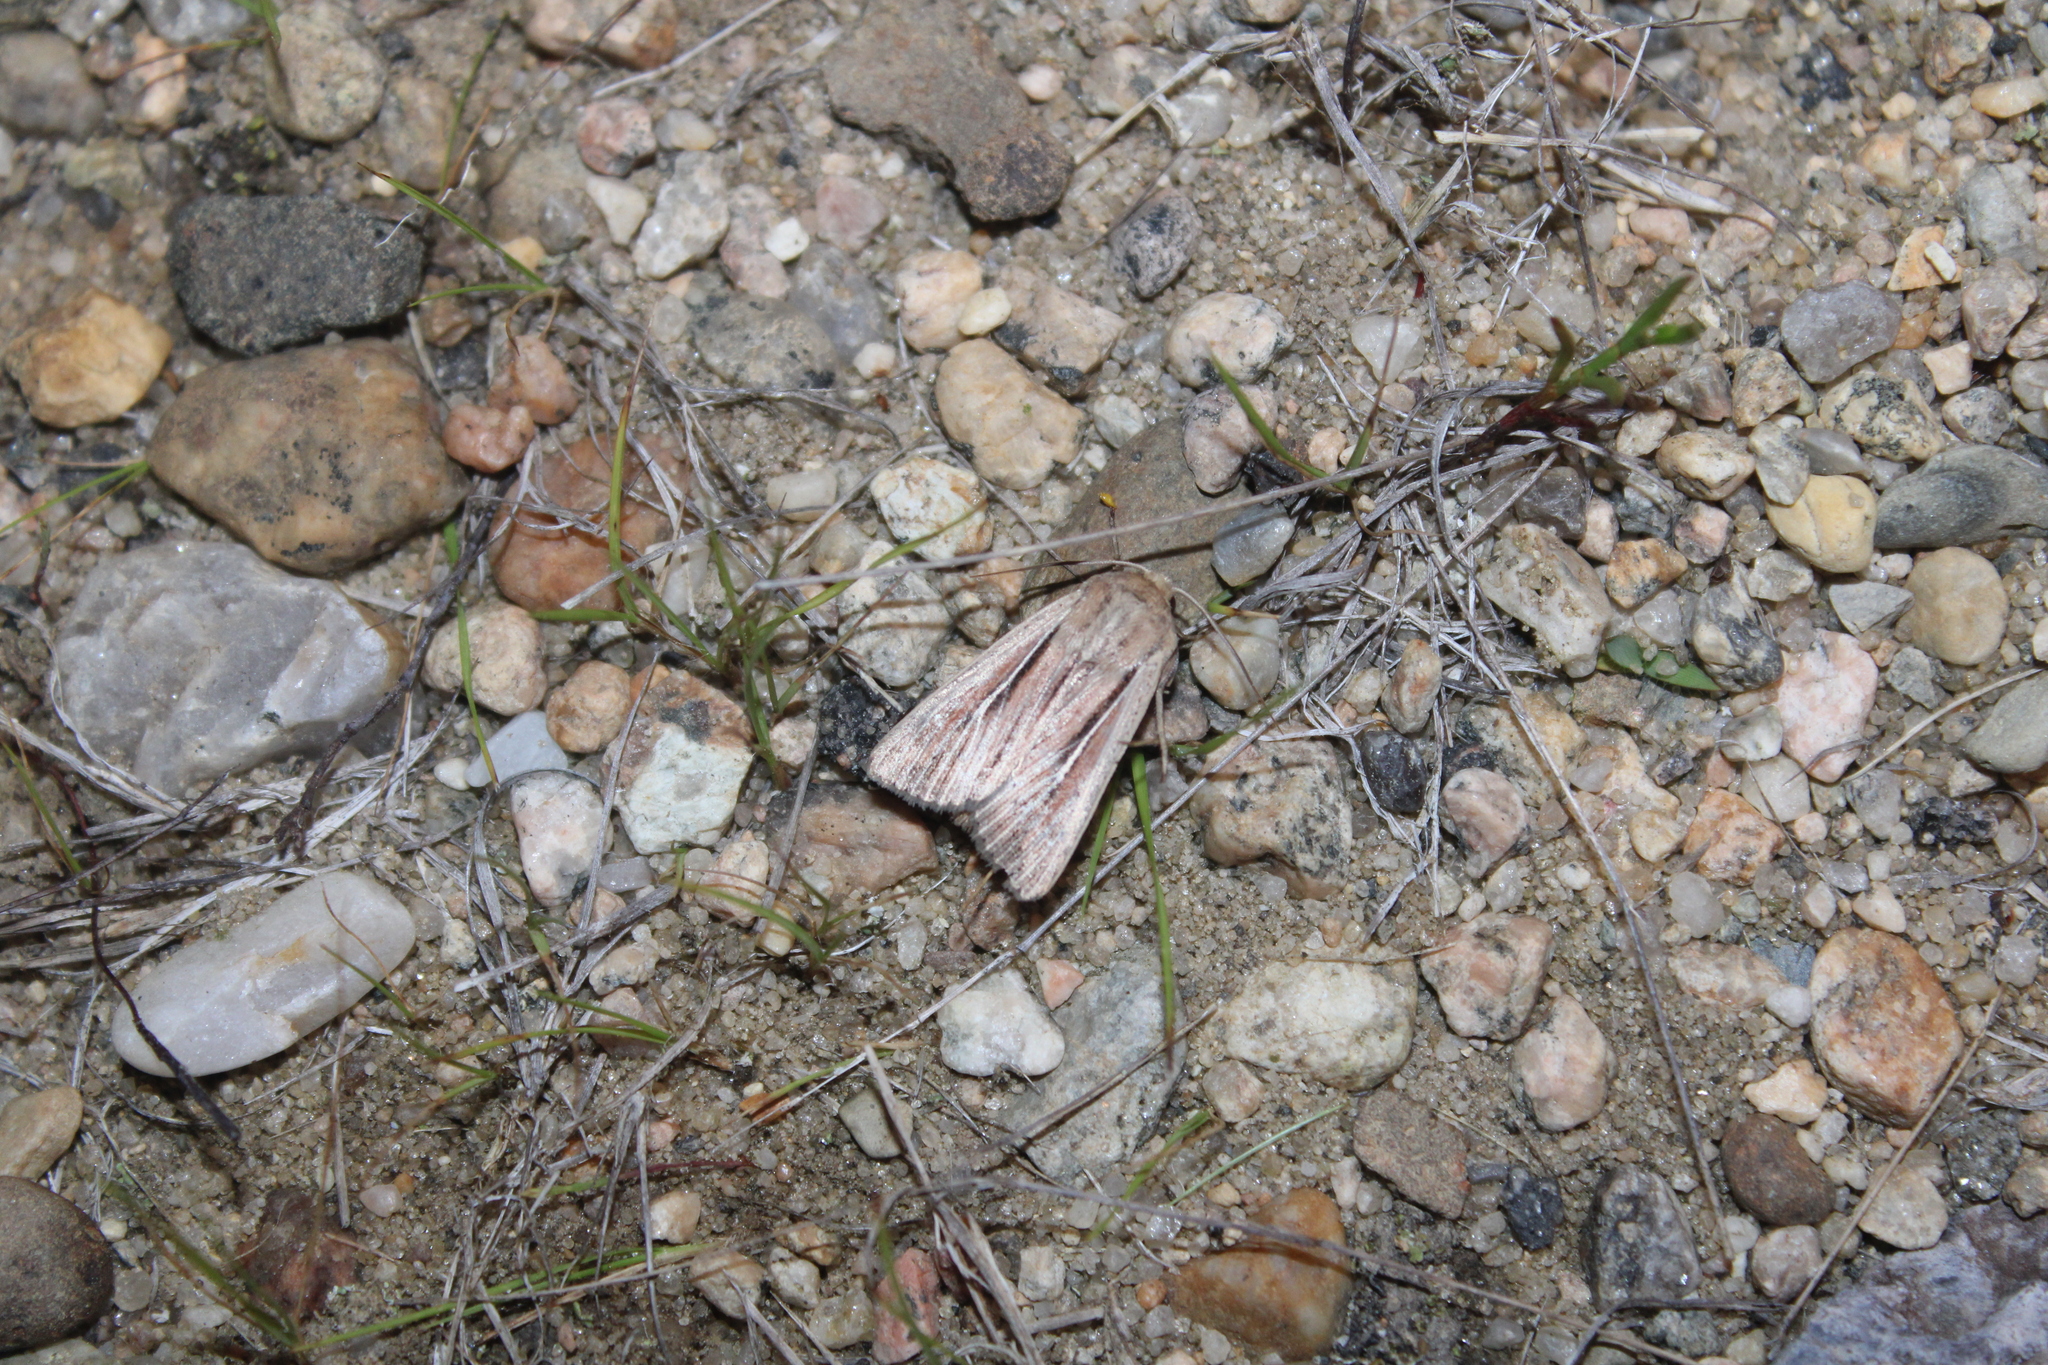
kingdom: Animalia
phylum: Arthropoda
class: Insecta
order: Lepidoptera
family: Noctuidae
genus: Leucania
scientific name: Leucania commoides
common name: Two-lined wainscot
